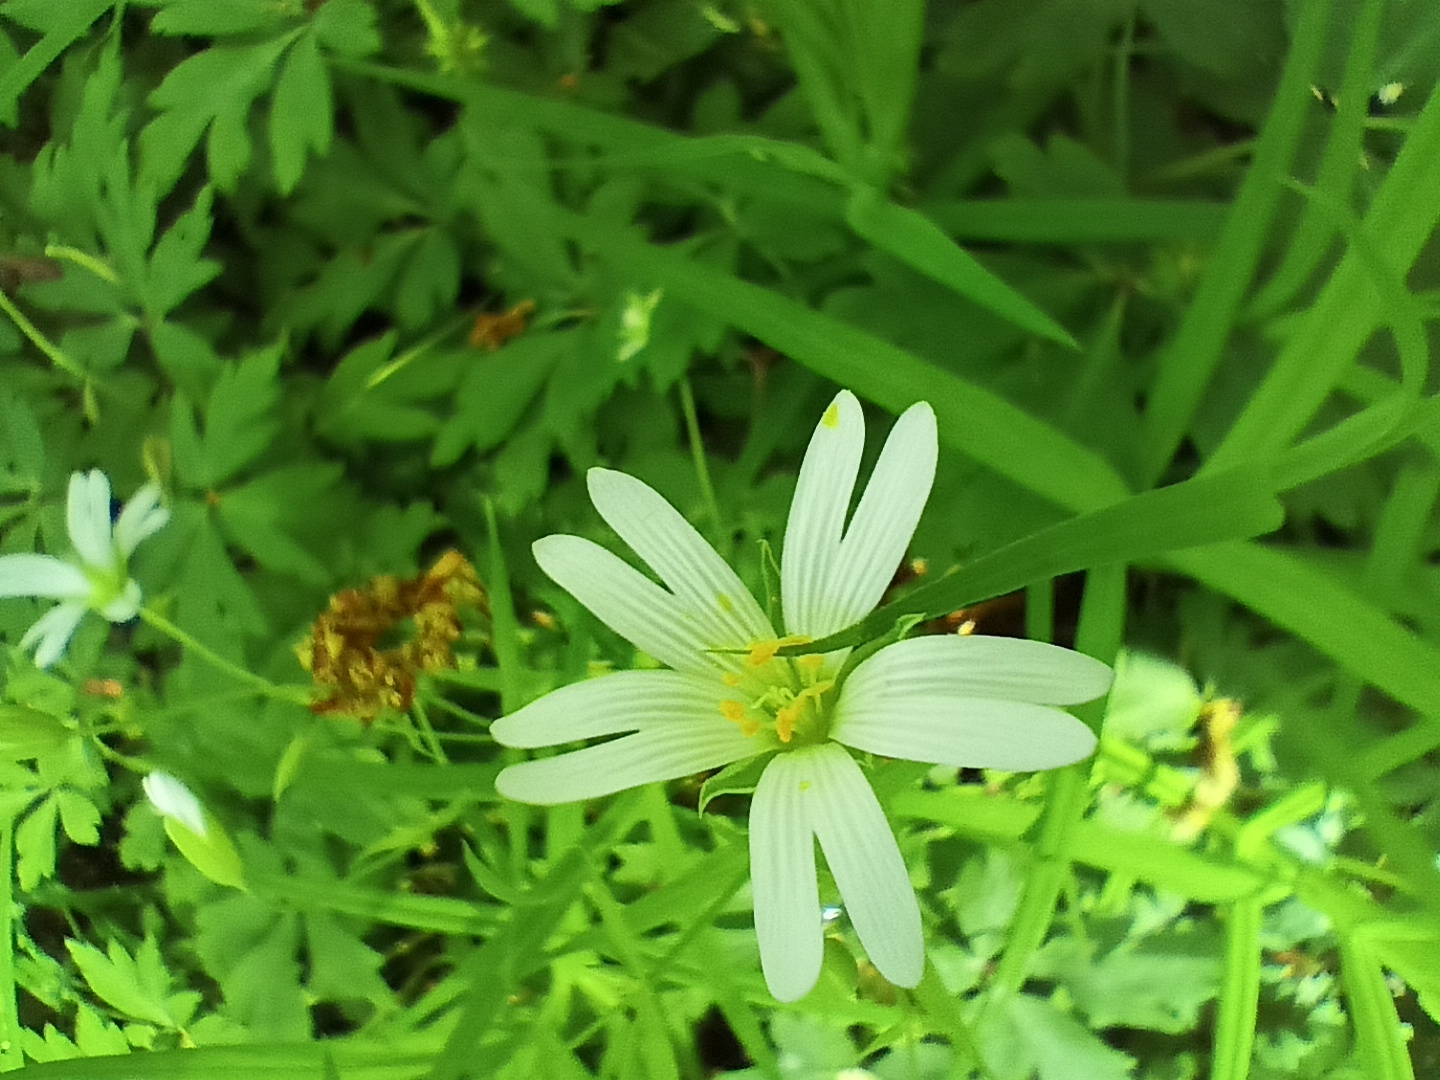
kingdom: Plantae
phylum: Tracheophyta
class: Magnoliopsida
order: Caryophyllales
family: Caryophyllaceae
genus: Rabelera
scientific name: Rabelera holostea
